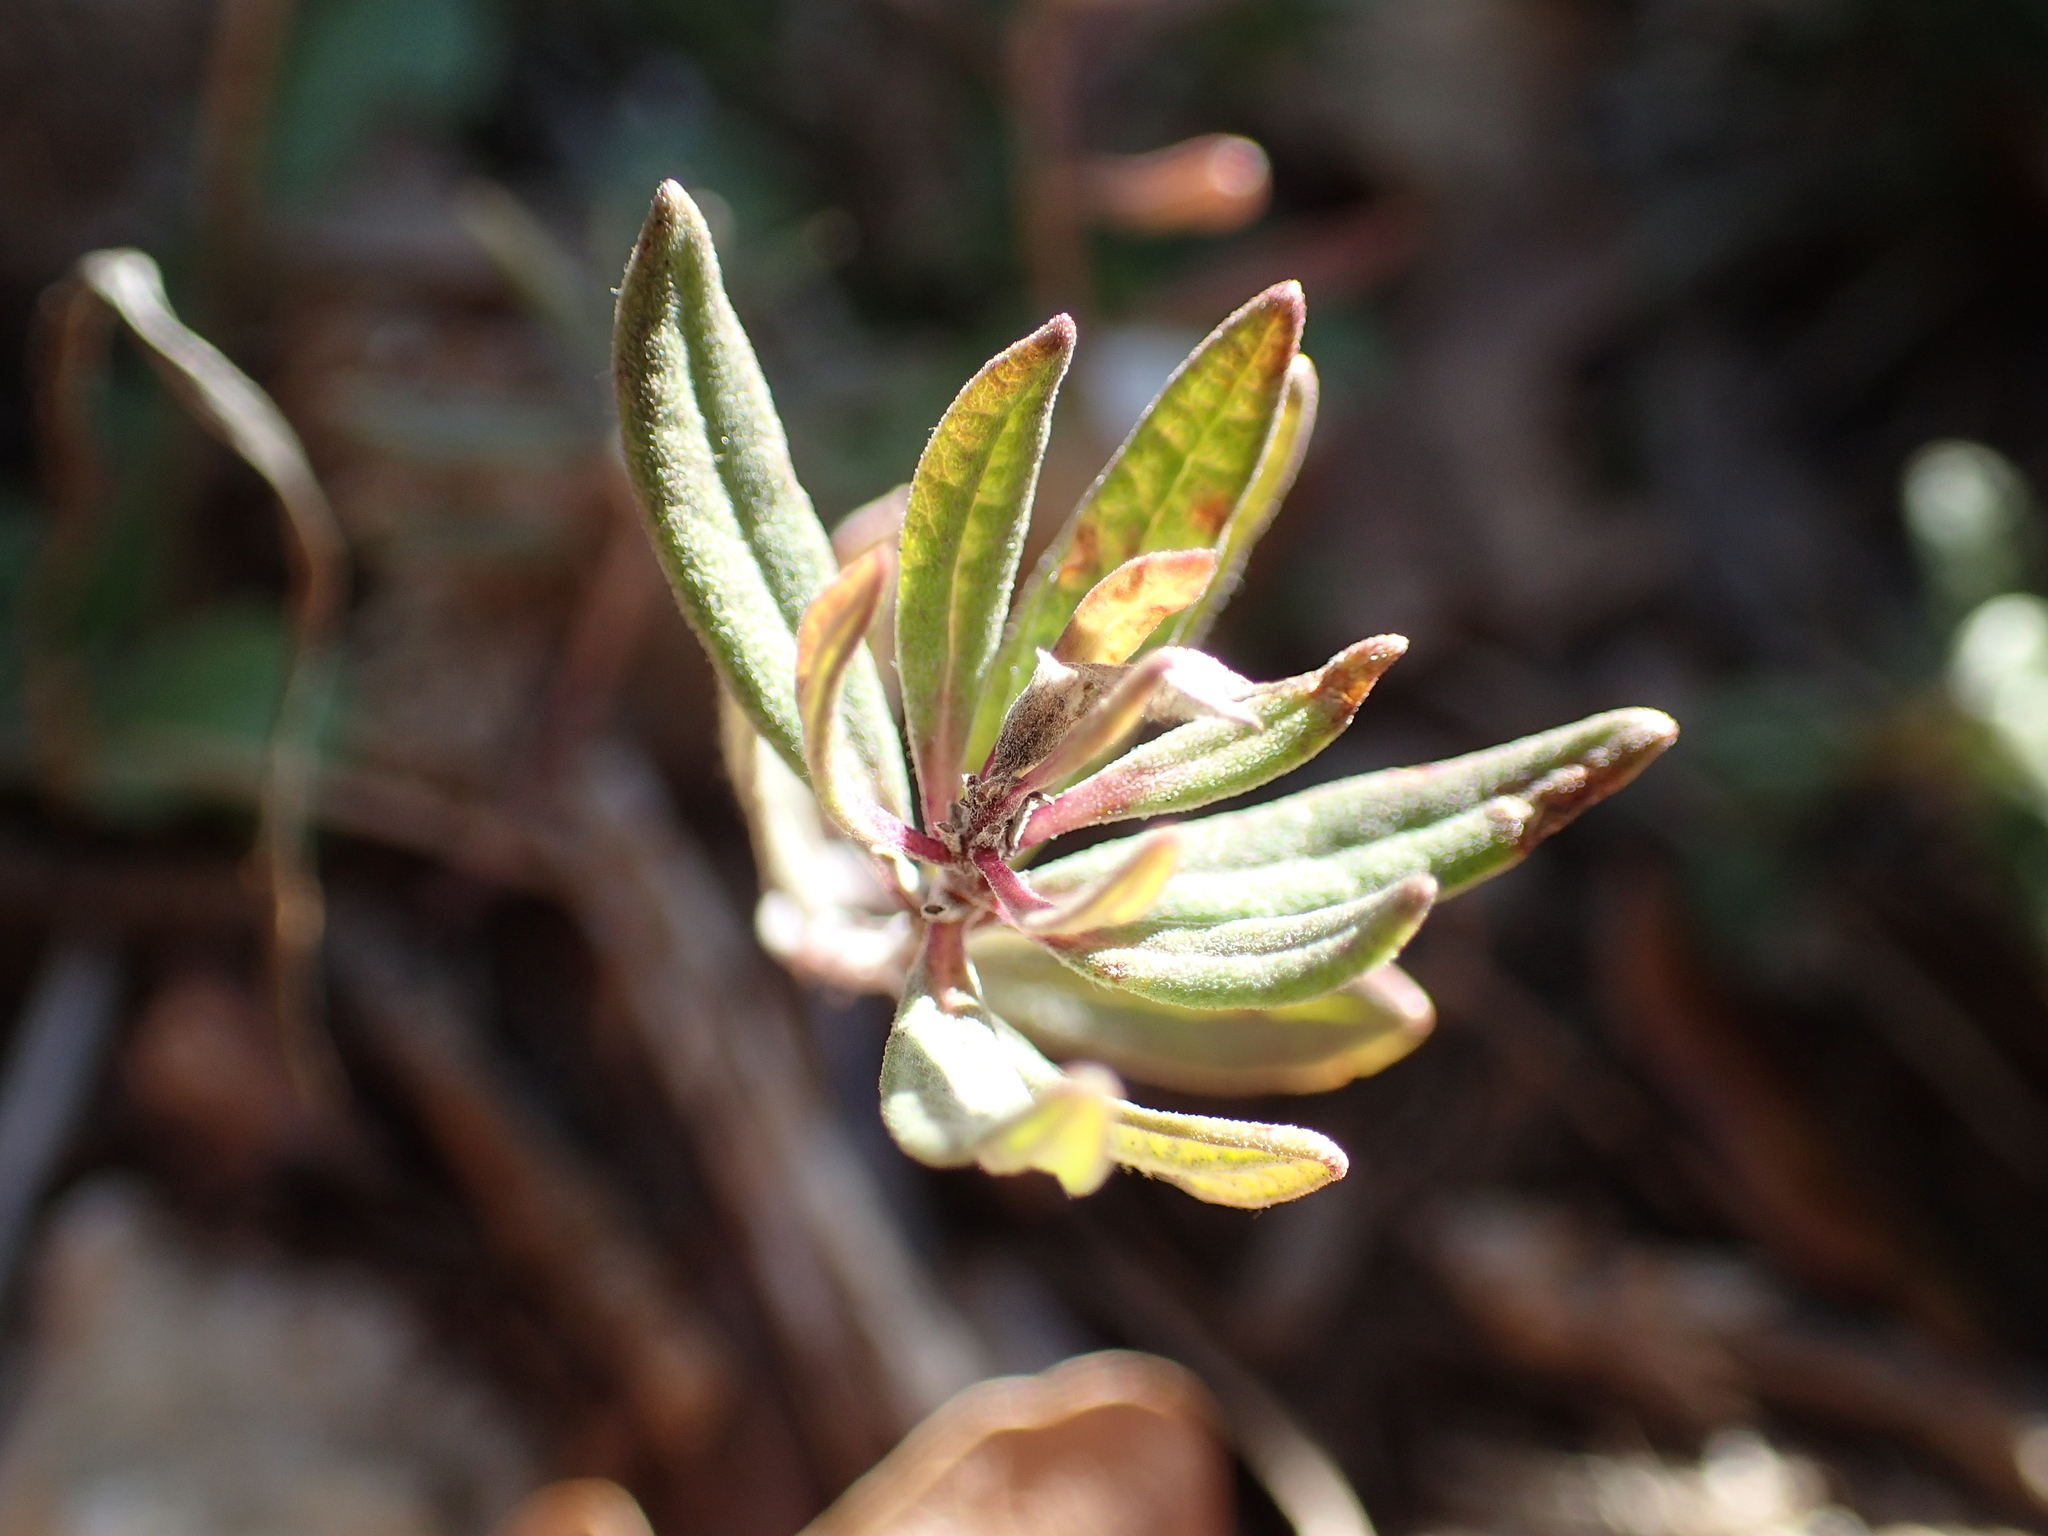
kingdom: Plantae
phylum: Tracheophyta
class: Magnoliopsida
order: Lamiales
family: Lamiaceae
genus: Teucrium
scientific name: Teucrium montanum
